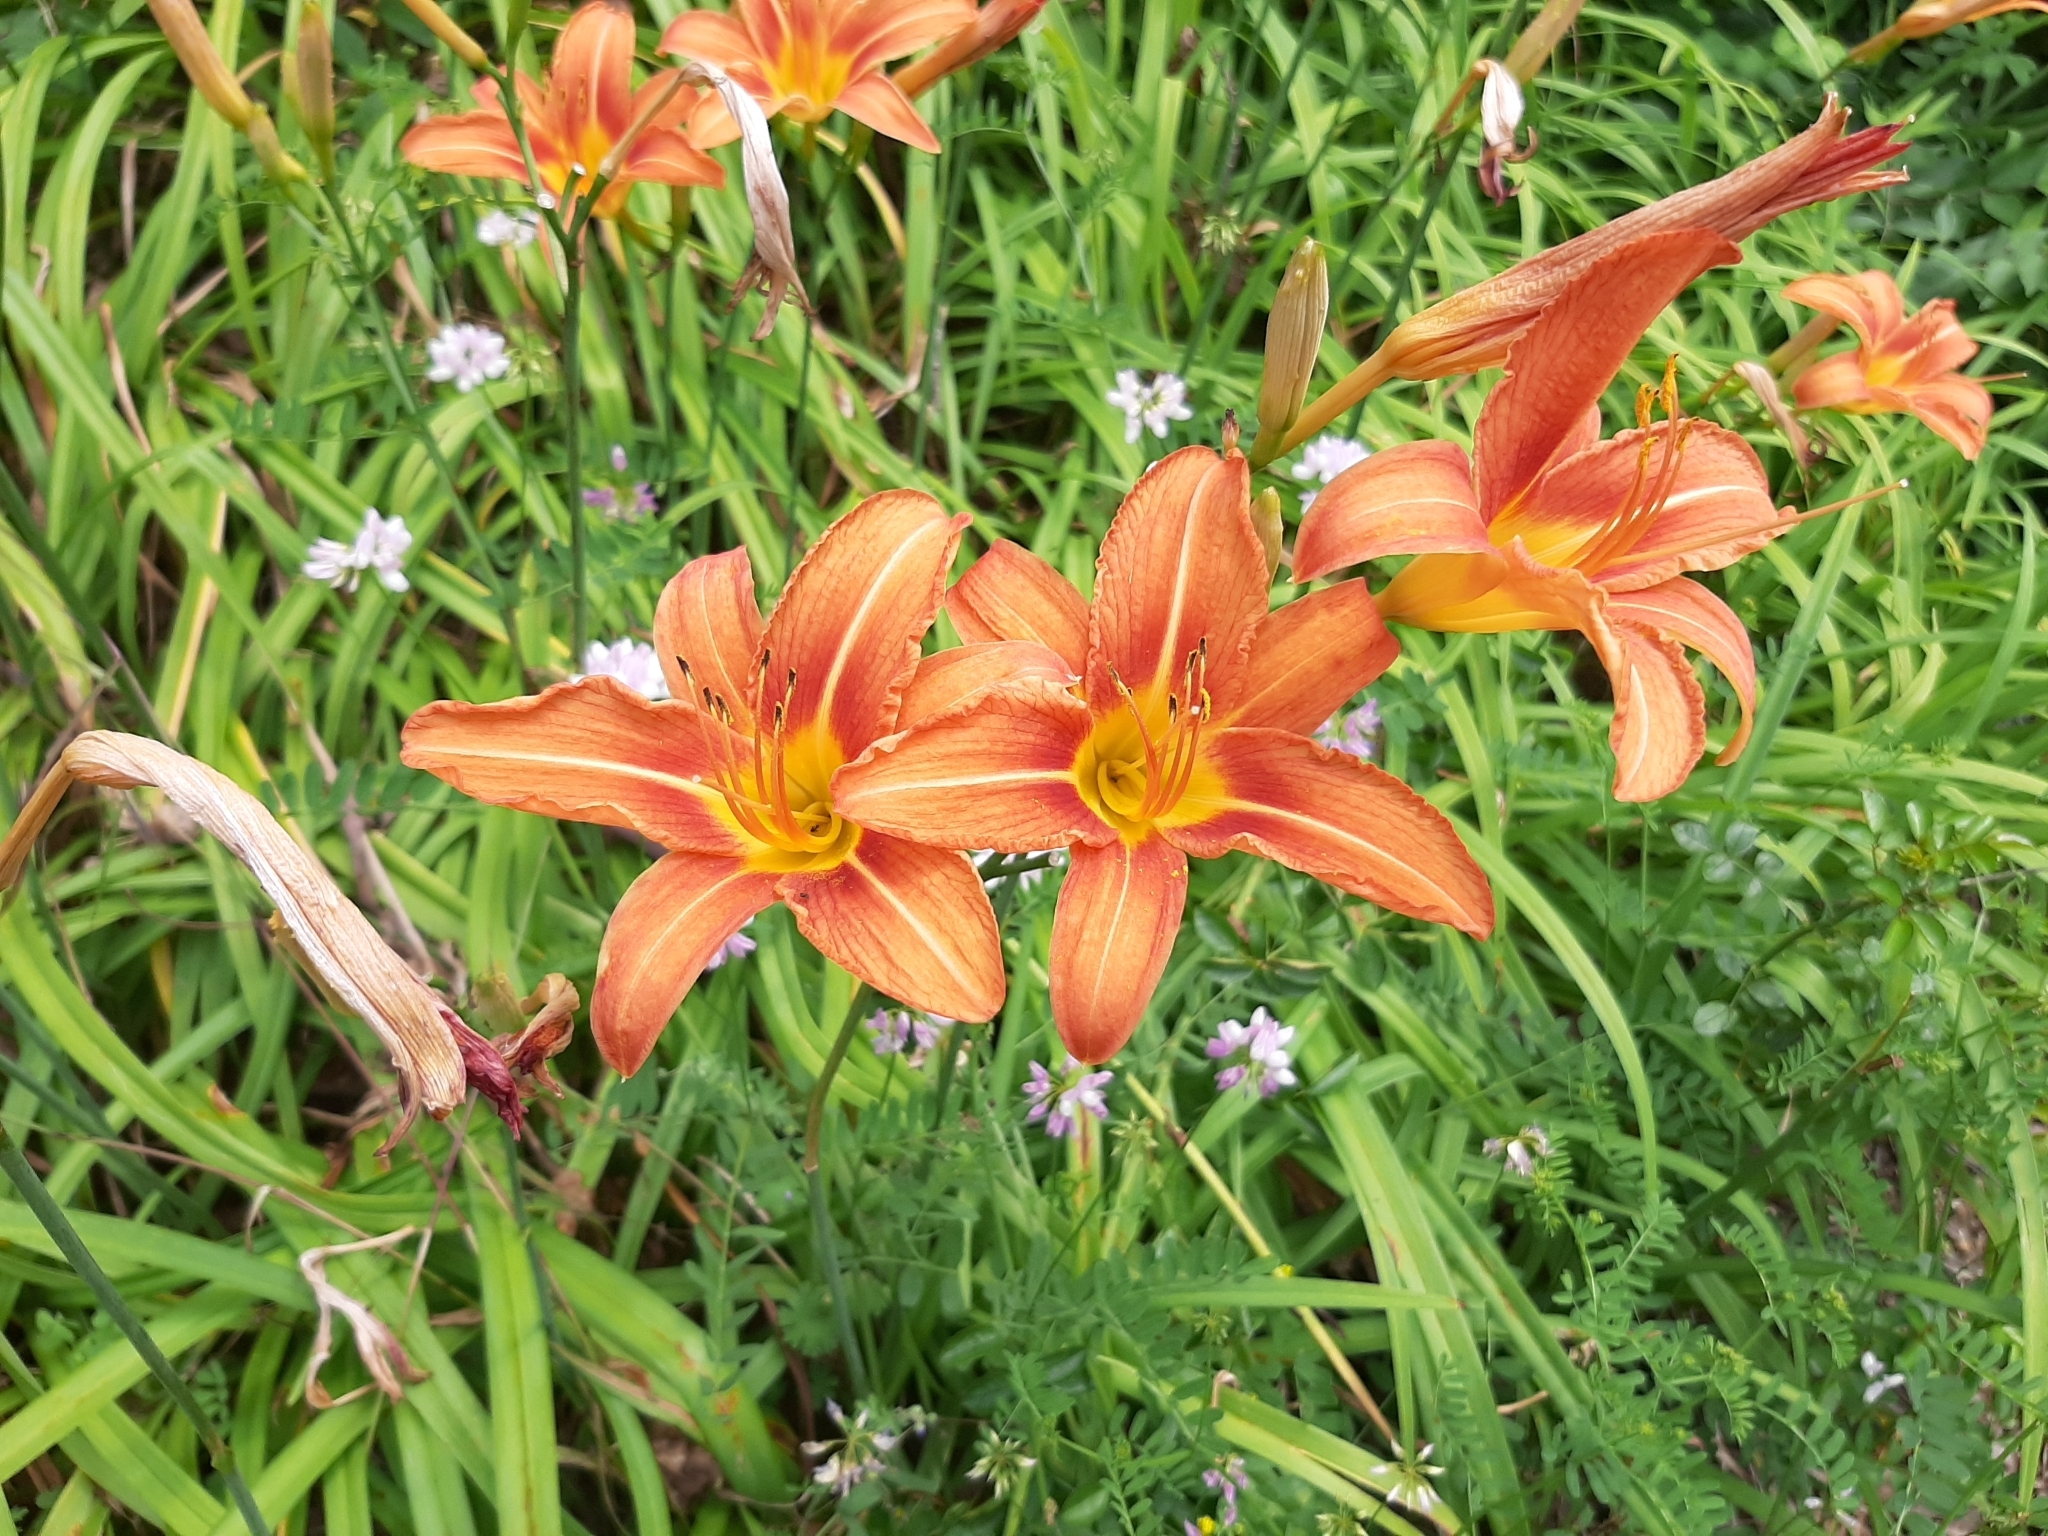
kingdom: Plantae
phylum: Tracheophyta
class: Liliopsida
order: Asparagales
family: Asphodelaceae
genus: Hemerocallis
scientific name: Hemerocallis fulva
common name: Orange day-lily
